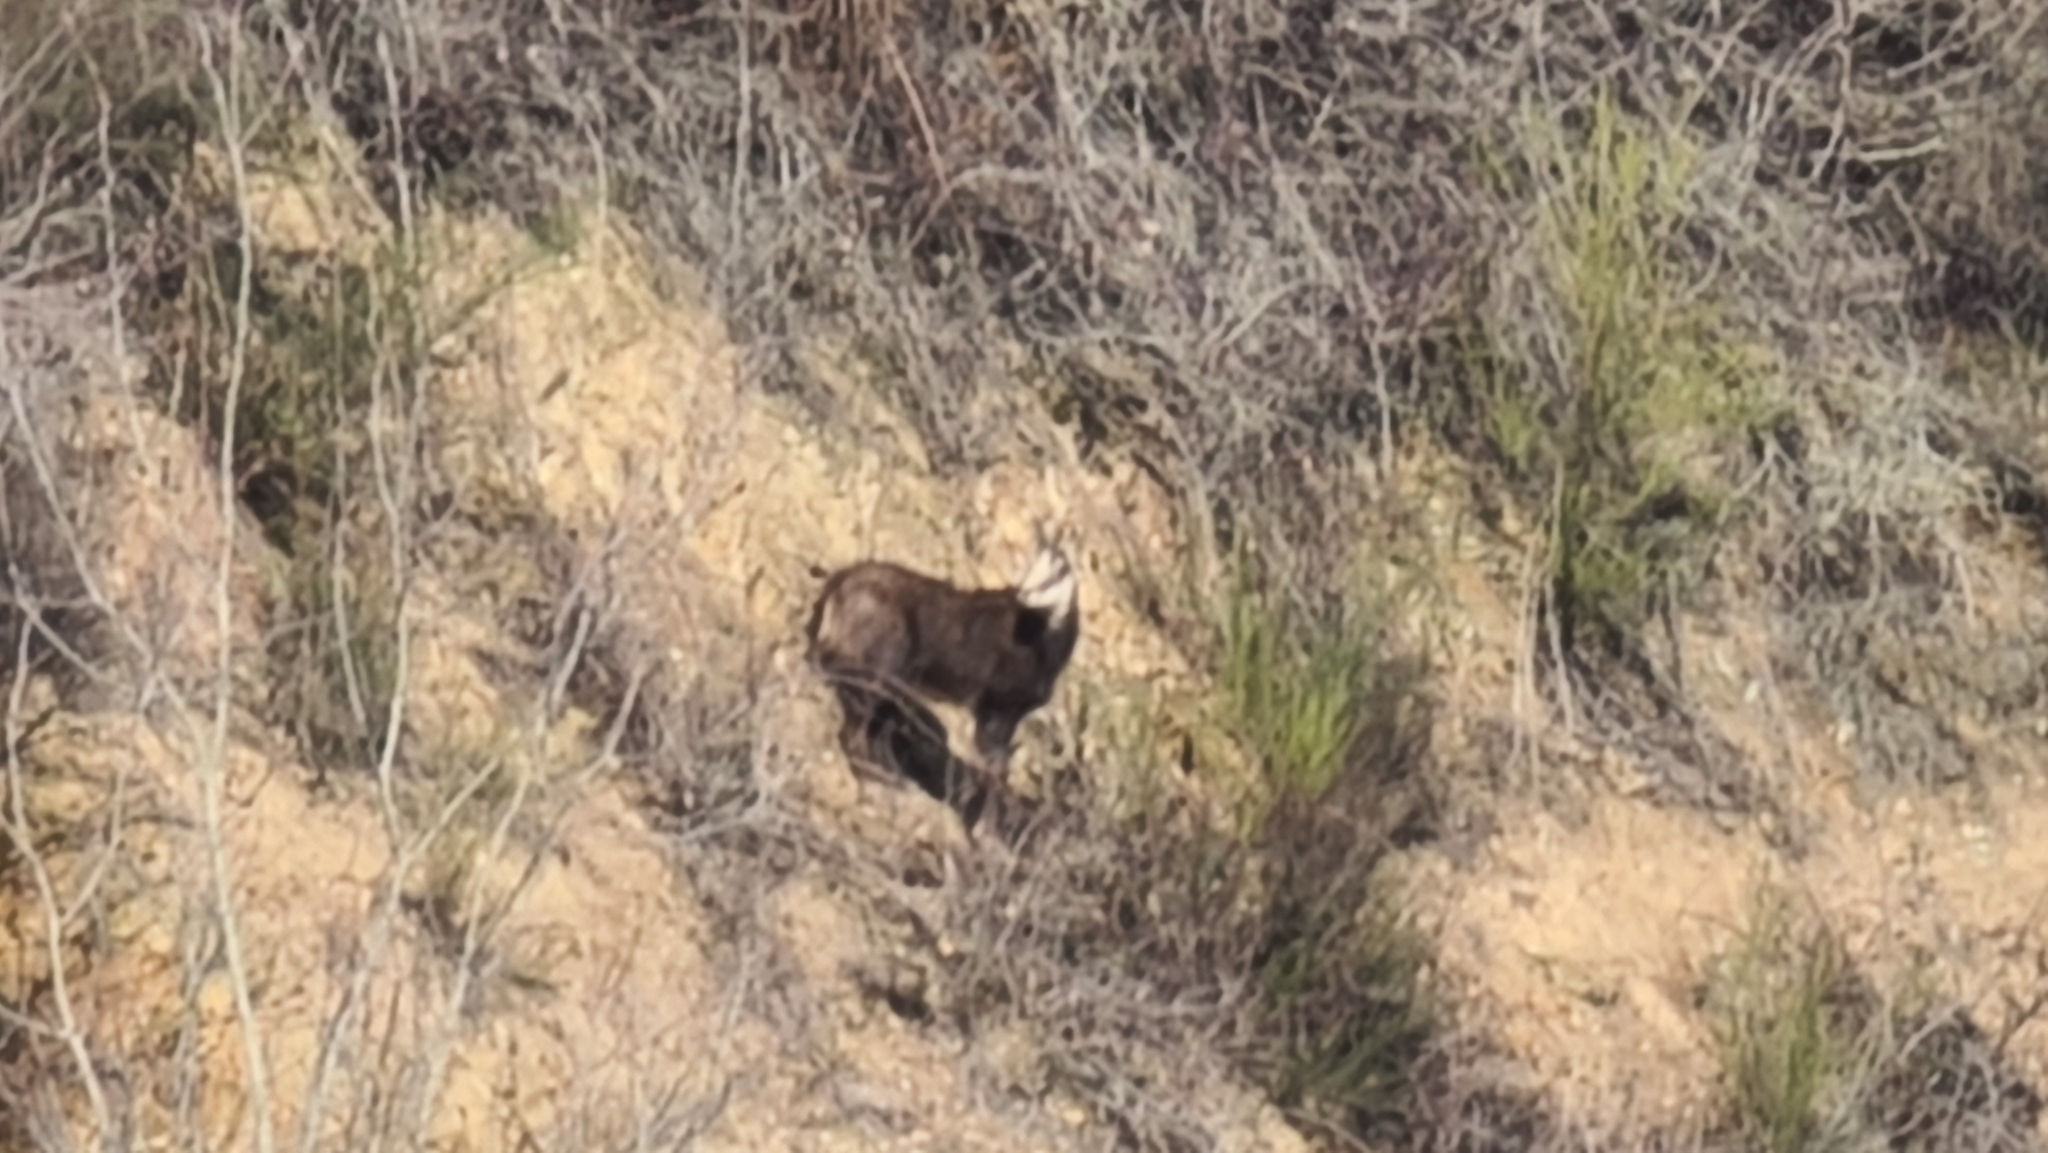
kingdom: Animalia
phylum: Chordata
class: Mammalia
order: Artiodactyla
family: Bovidae
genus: Rupicapra
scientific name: Rupicapra rupicapra
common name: Chamois
